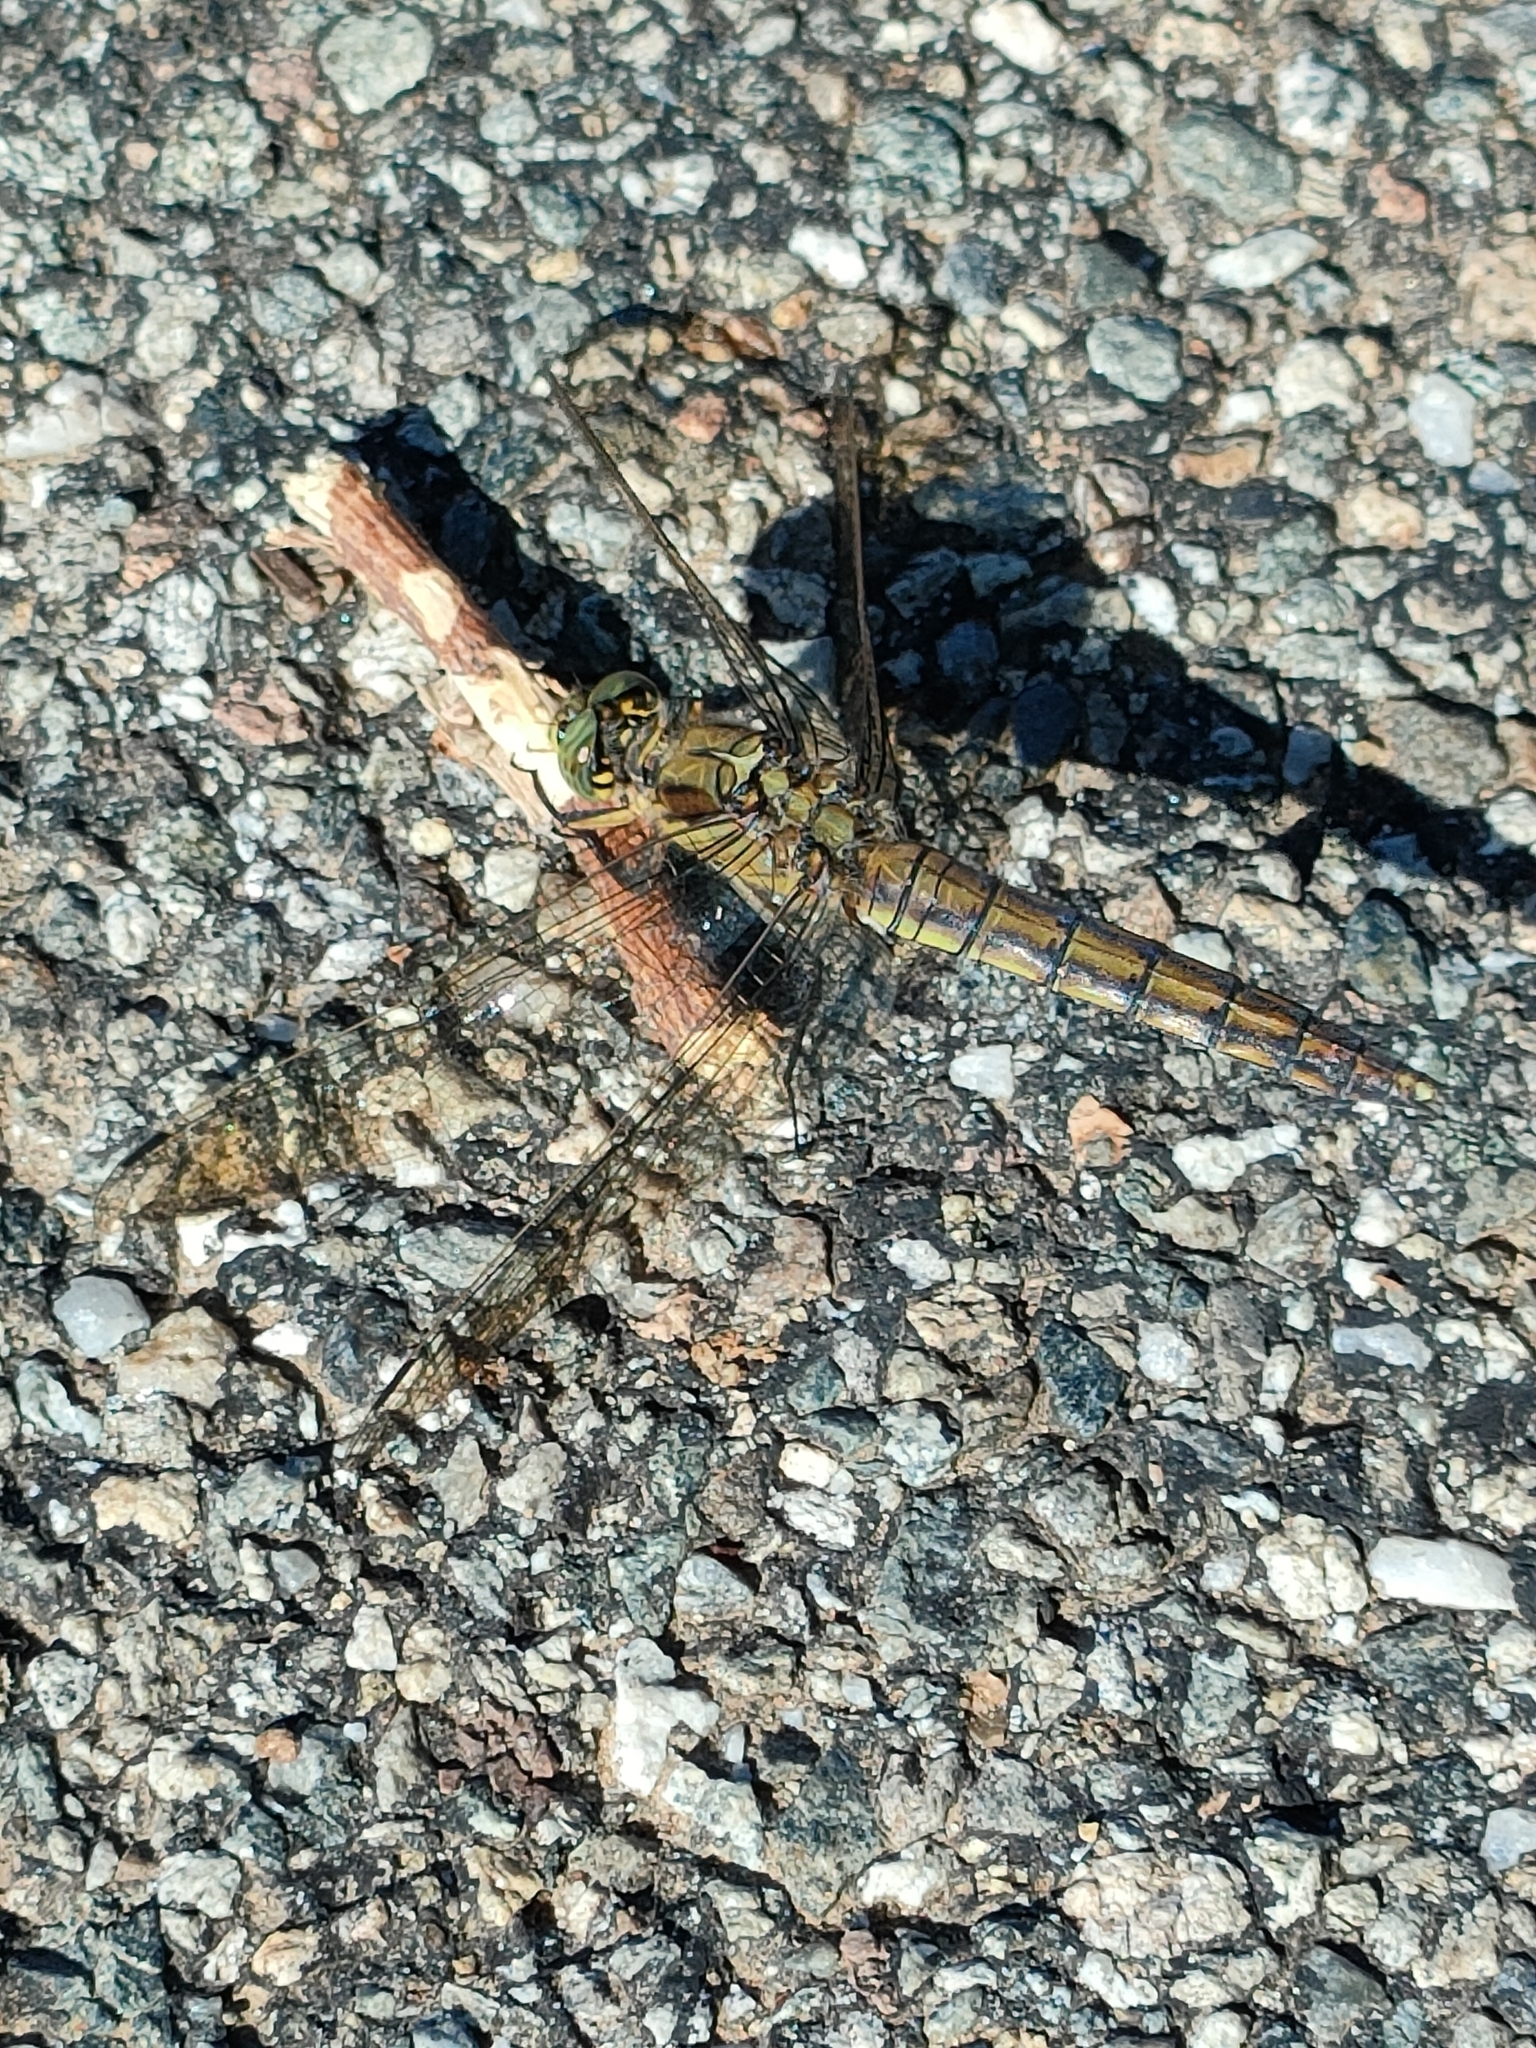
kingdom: Animalia
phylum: Arthropoda
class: Insecta
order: Odonata
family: Libellulidae
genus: Orthetrum
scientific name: Orthetrum cancellatum
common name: Black-tailed skimmer
